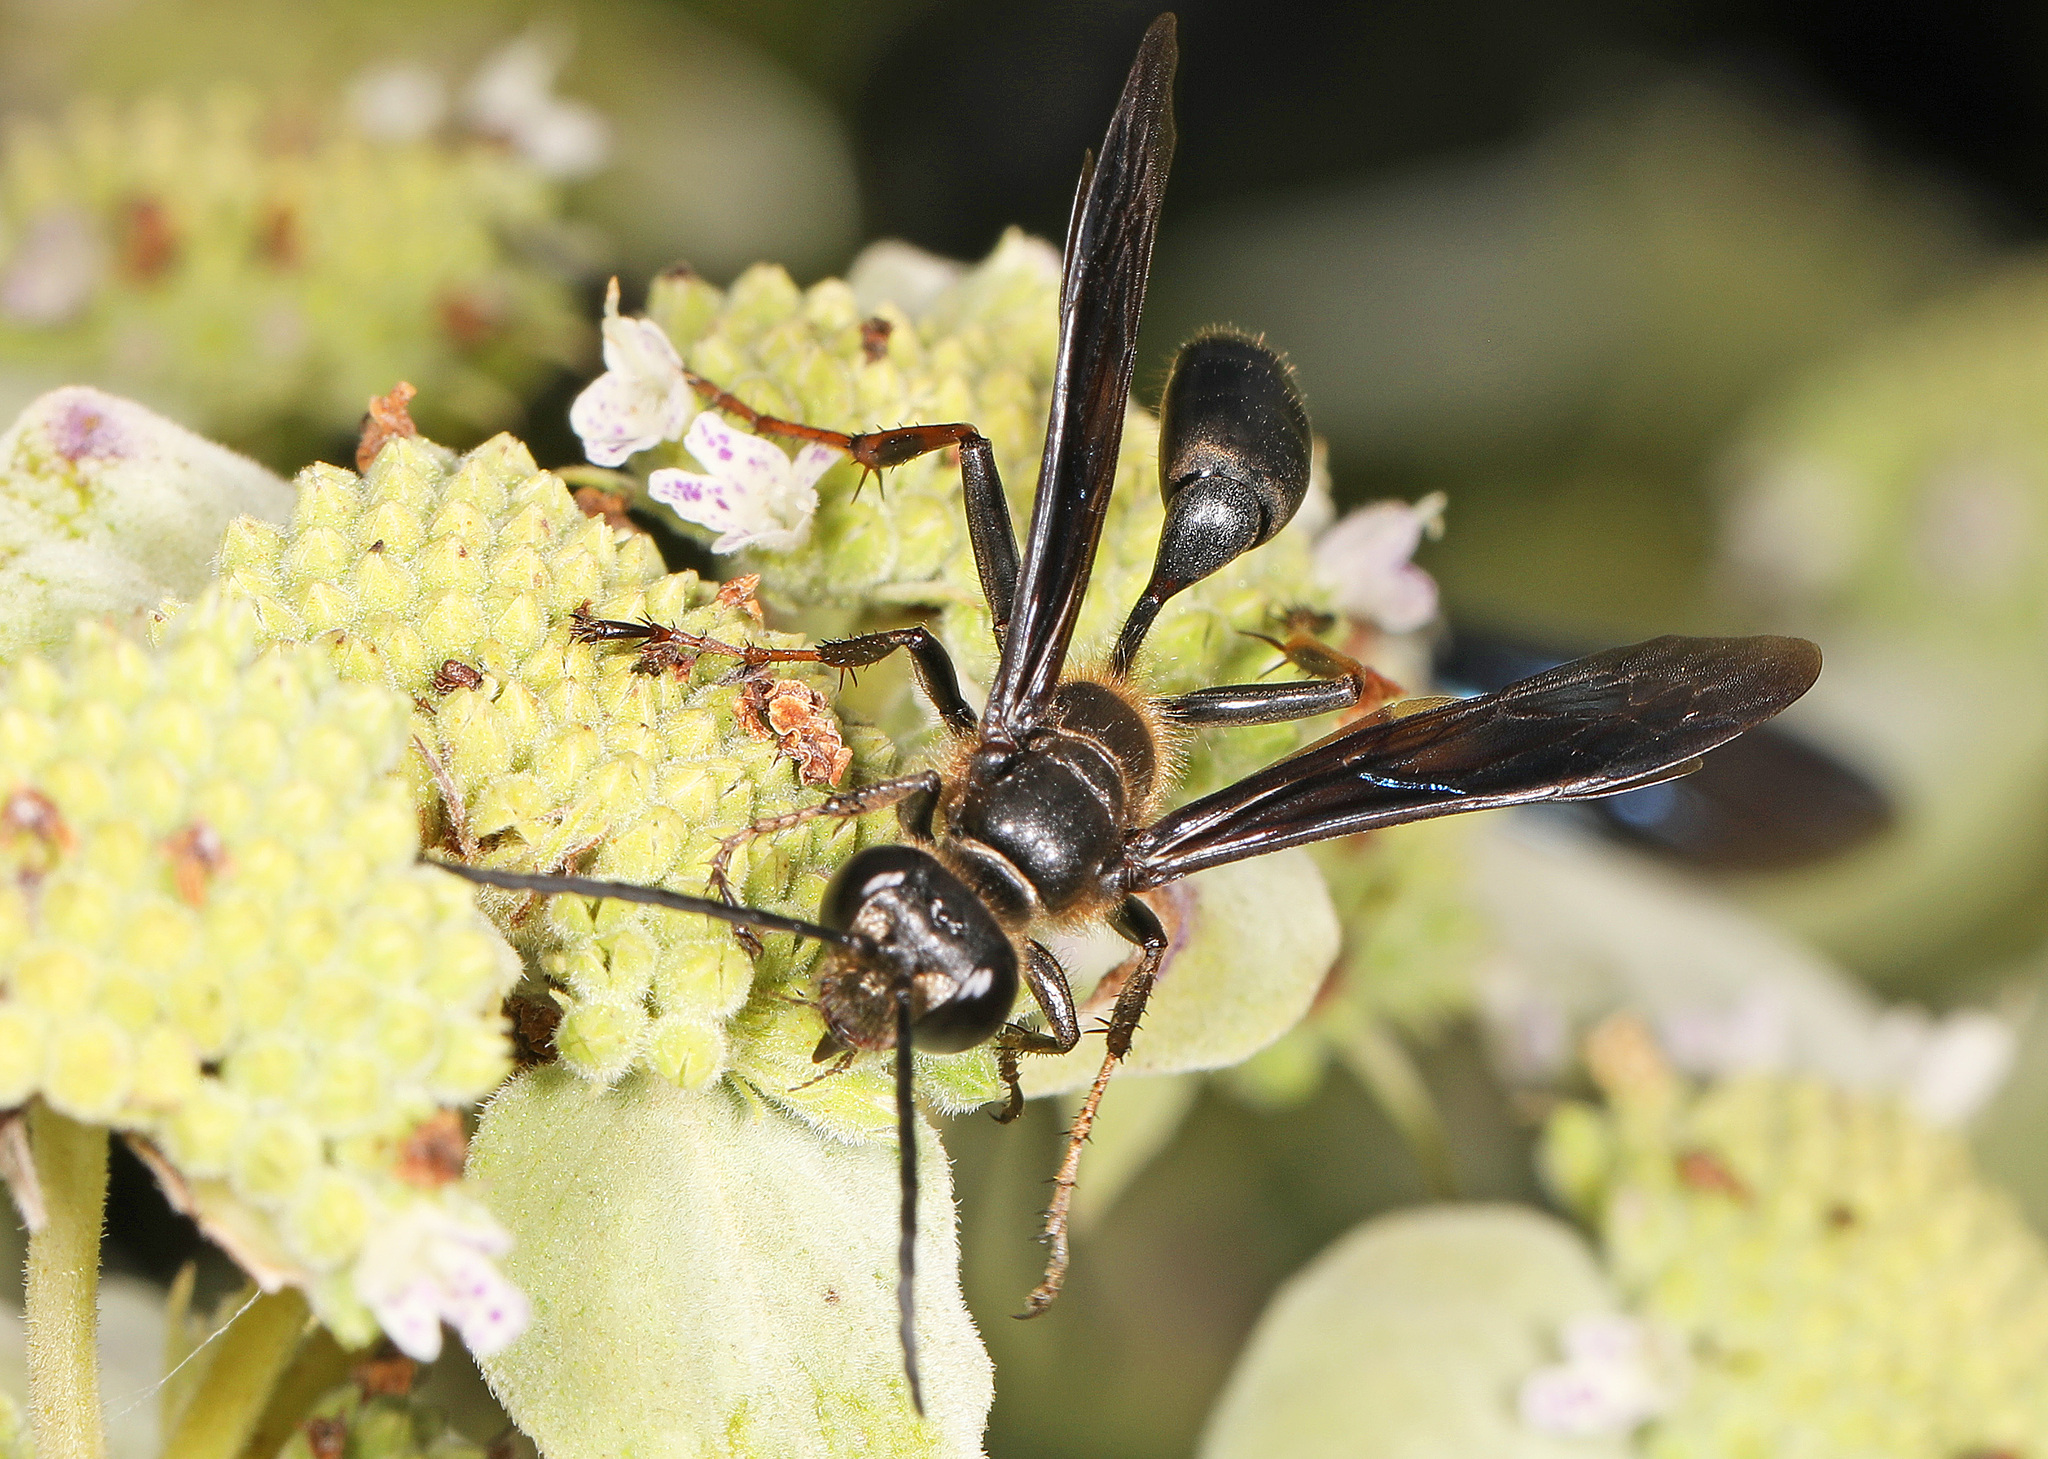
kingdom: Animalia
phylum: Arthropoda
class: Insecta
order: Hymenoptera
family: Sphecidae
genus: Isodontia
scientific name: Isodontia auripes
